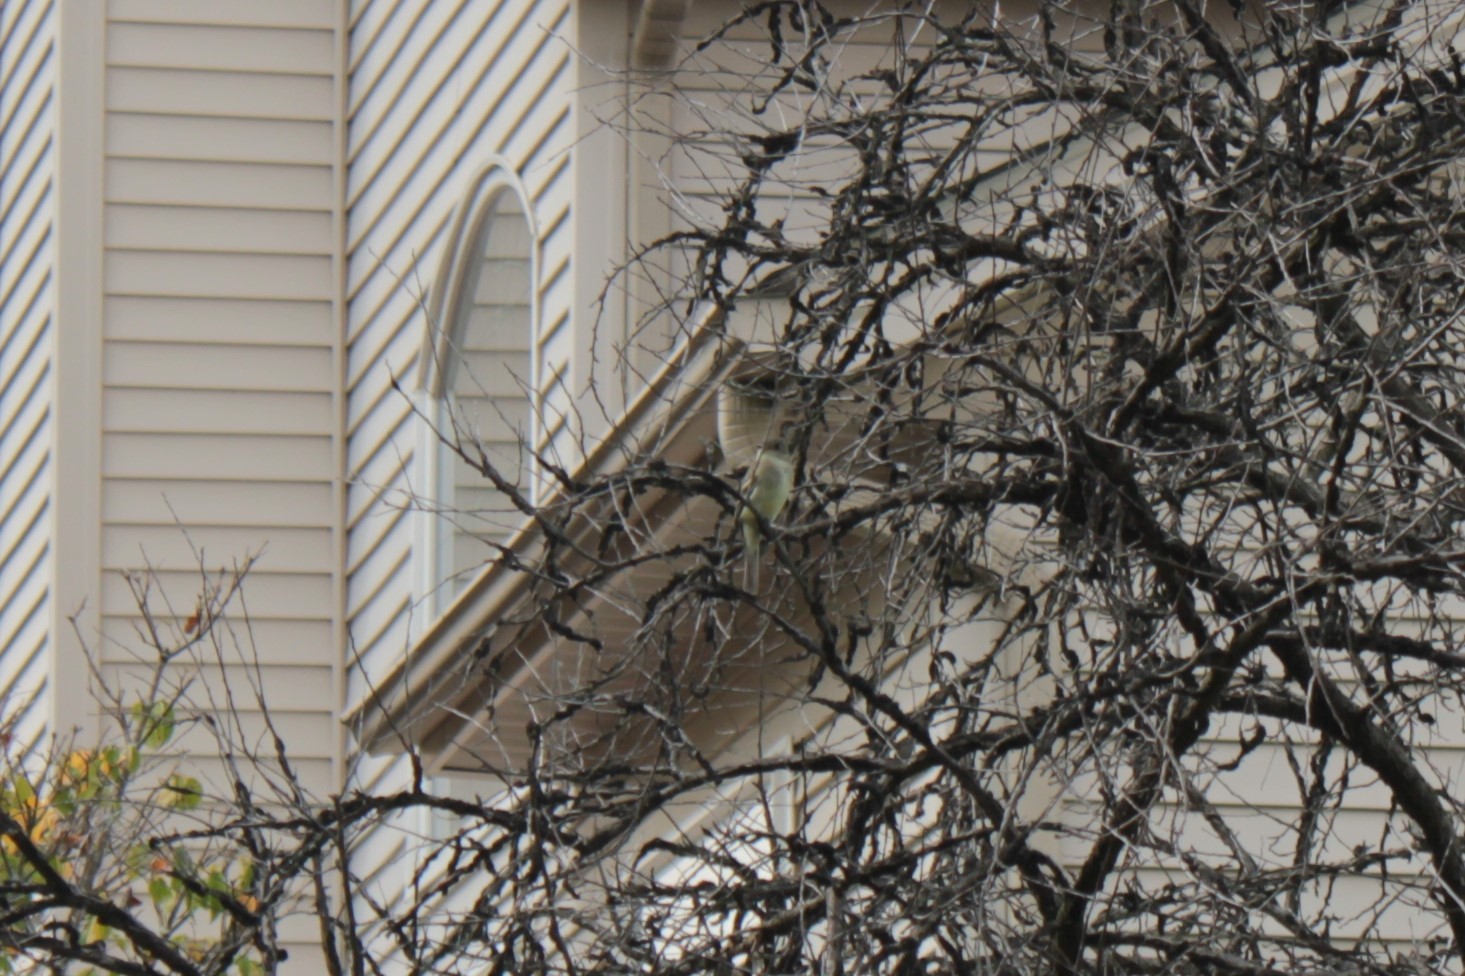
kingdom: Animalia
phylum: Chordata
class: Aves
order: Passeriformes
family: Tyrannidae
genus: Empidonax
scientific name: Empidonax
